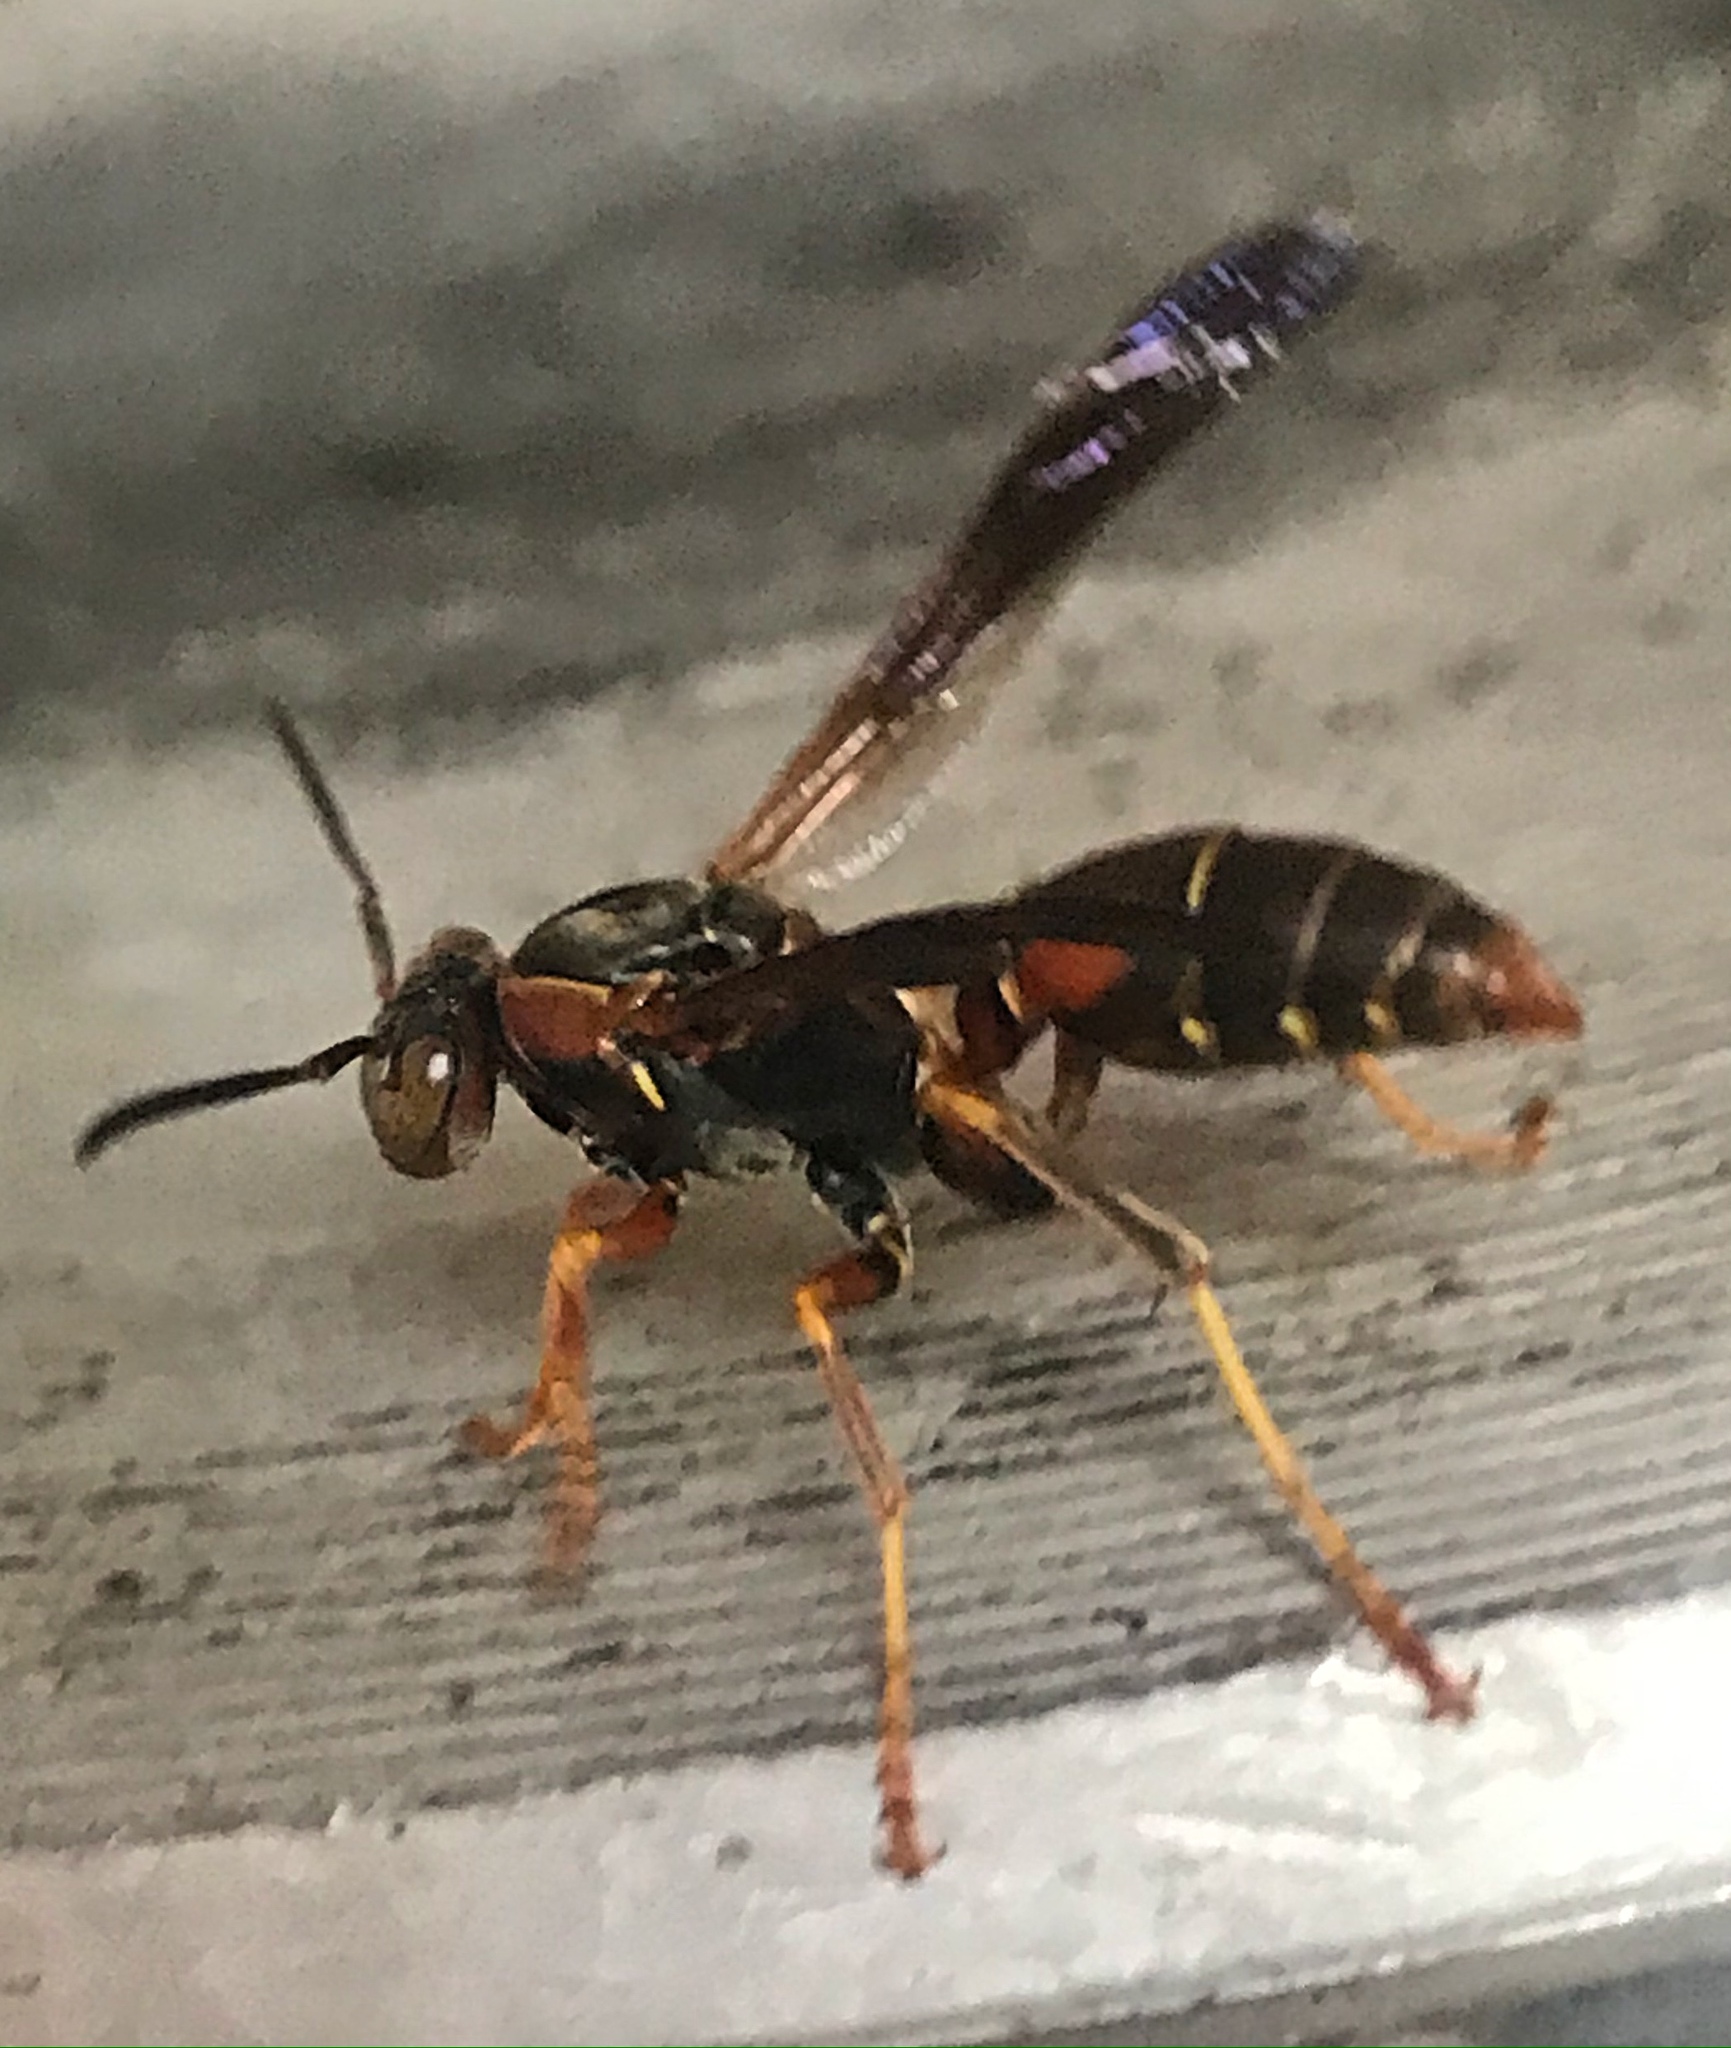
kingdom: Animalia
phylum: Arthropoda
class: Insecta
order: Hymenoptera
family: Eumenidae
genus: Polistes
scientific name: Polistes fuscatus
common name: Dark paper wasp
